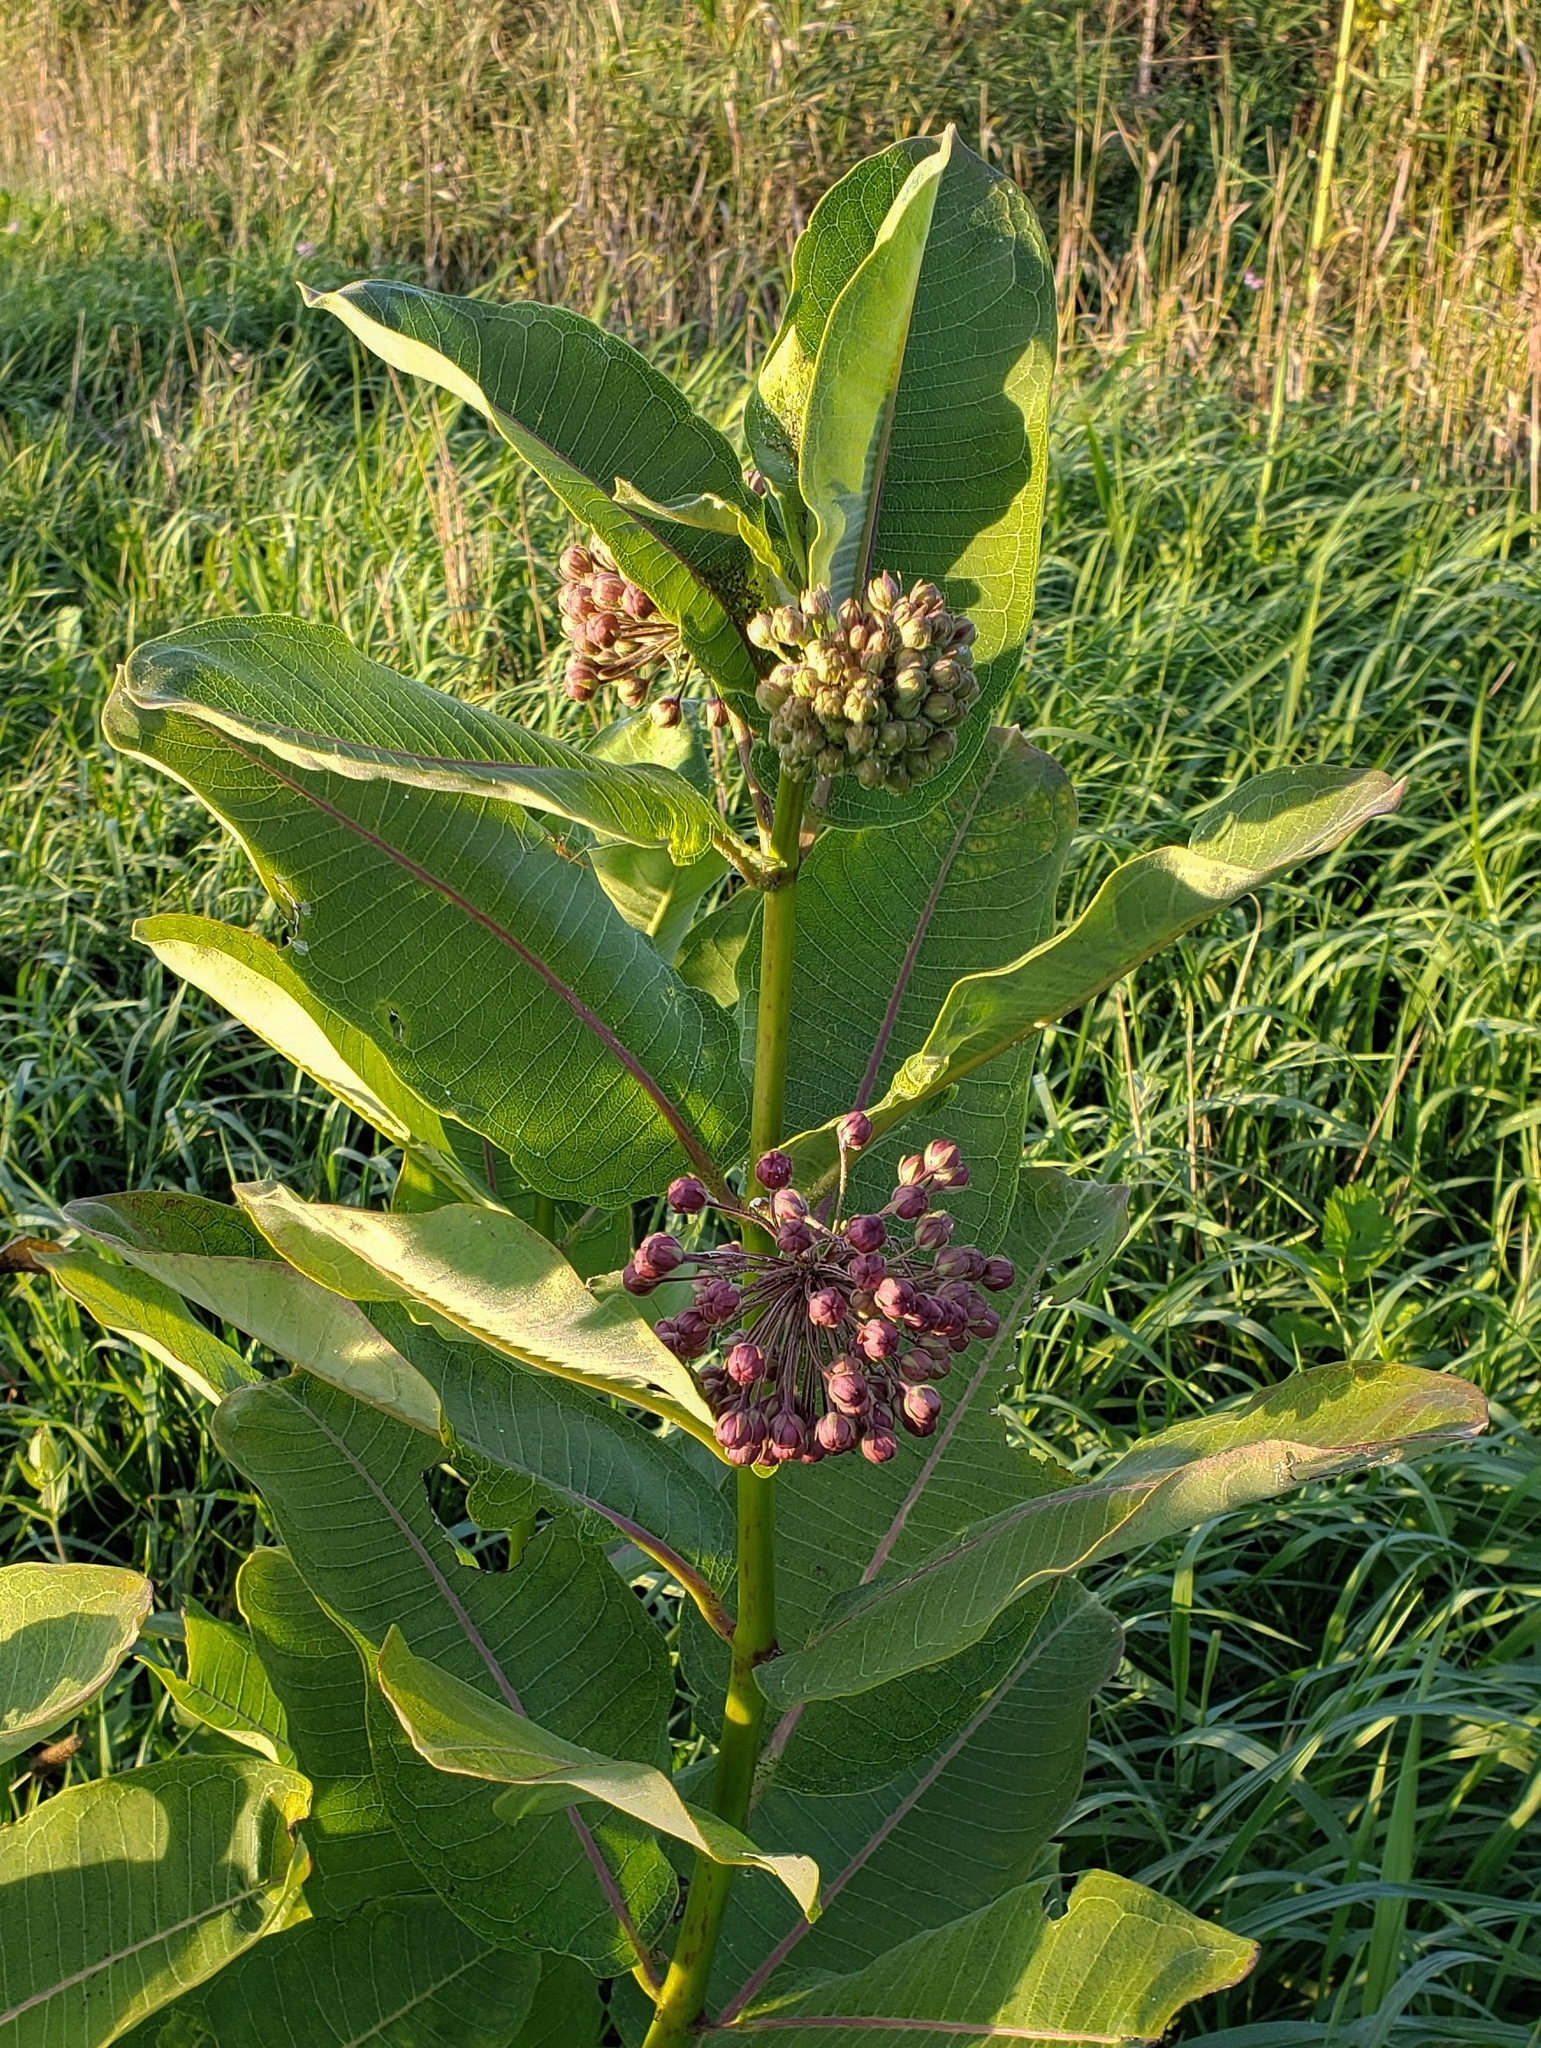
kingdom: Plantae
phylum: Tracheophyta
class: Magnoliopsida
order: Gentianales
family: Apocynaceae
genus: Asclepias
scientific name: Asclepias syriaca
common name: Common milkweed
